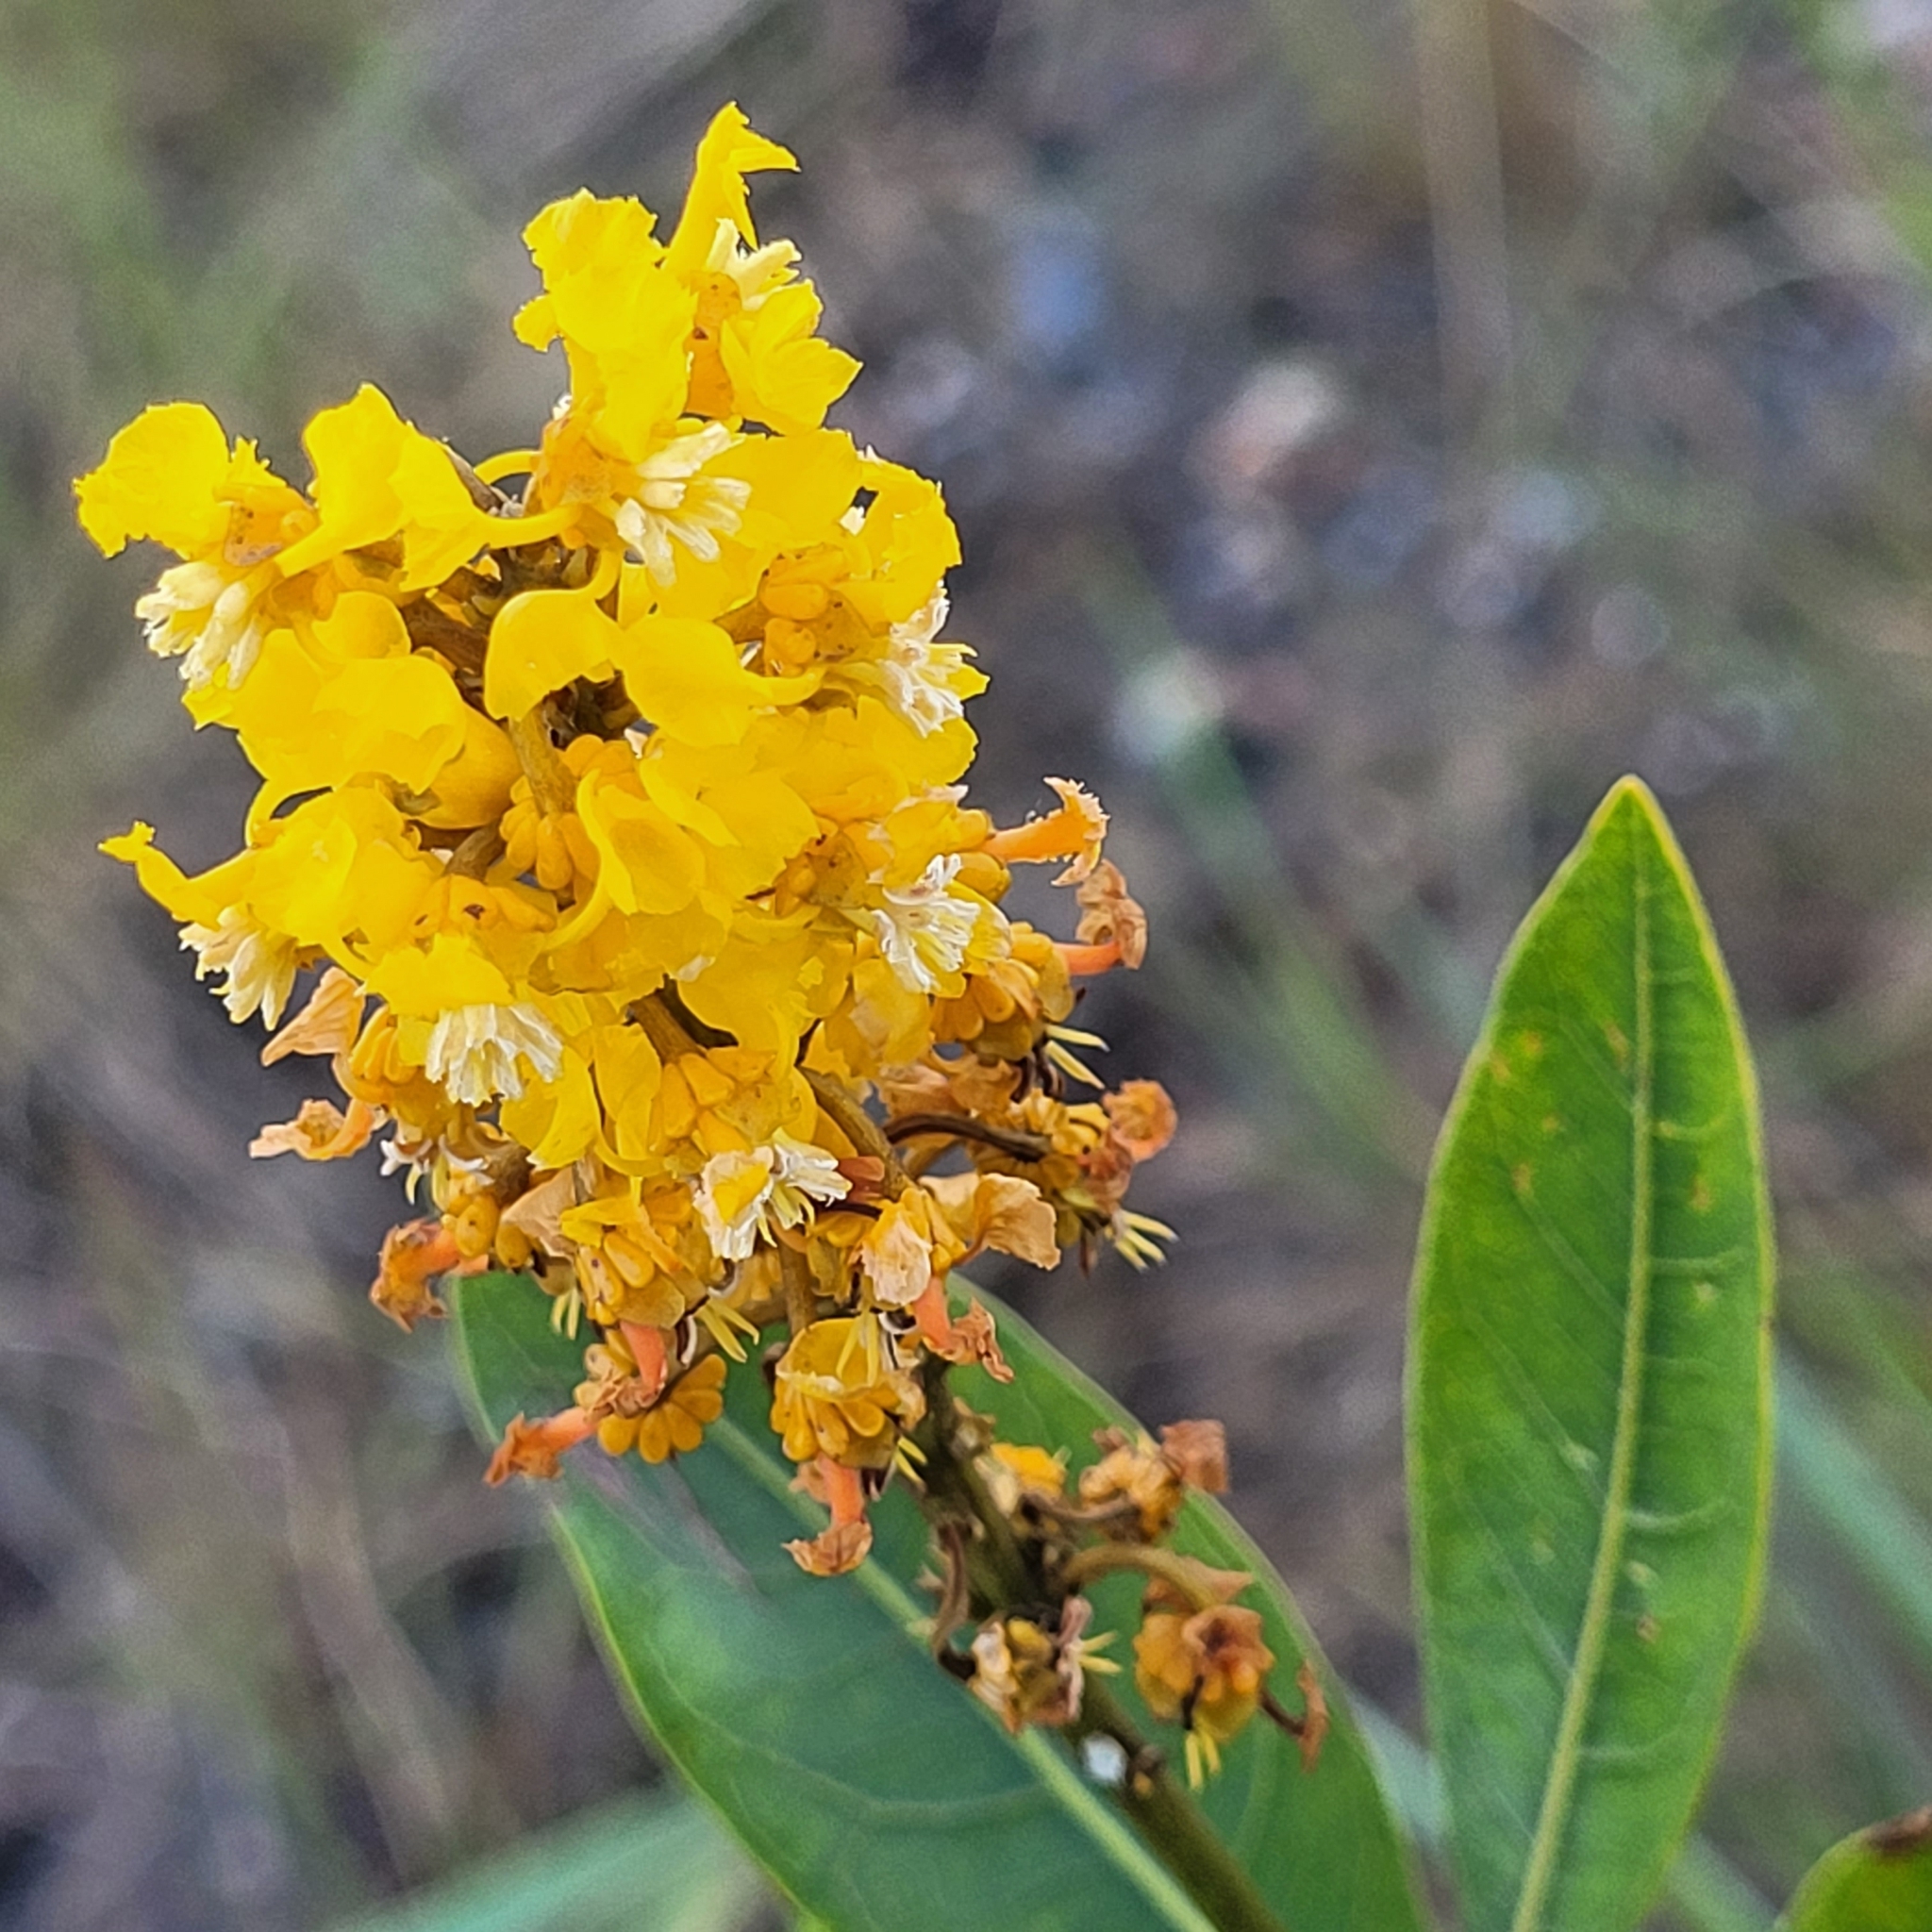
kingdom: Plantae
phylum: Tracheophyta
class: Magnoliopsida
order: Malpighiales
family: Malpighiaceae
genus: Byrsonima
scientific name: Byrsonima intermedia
